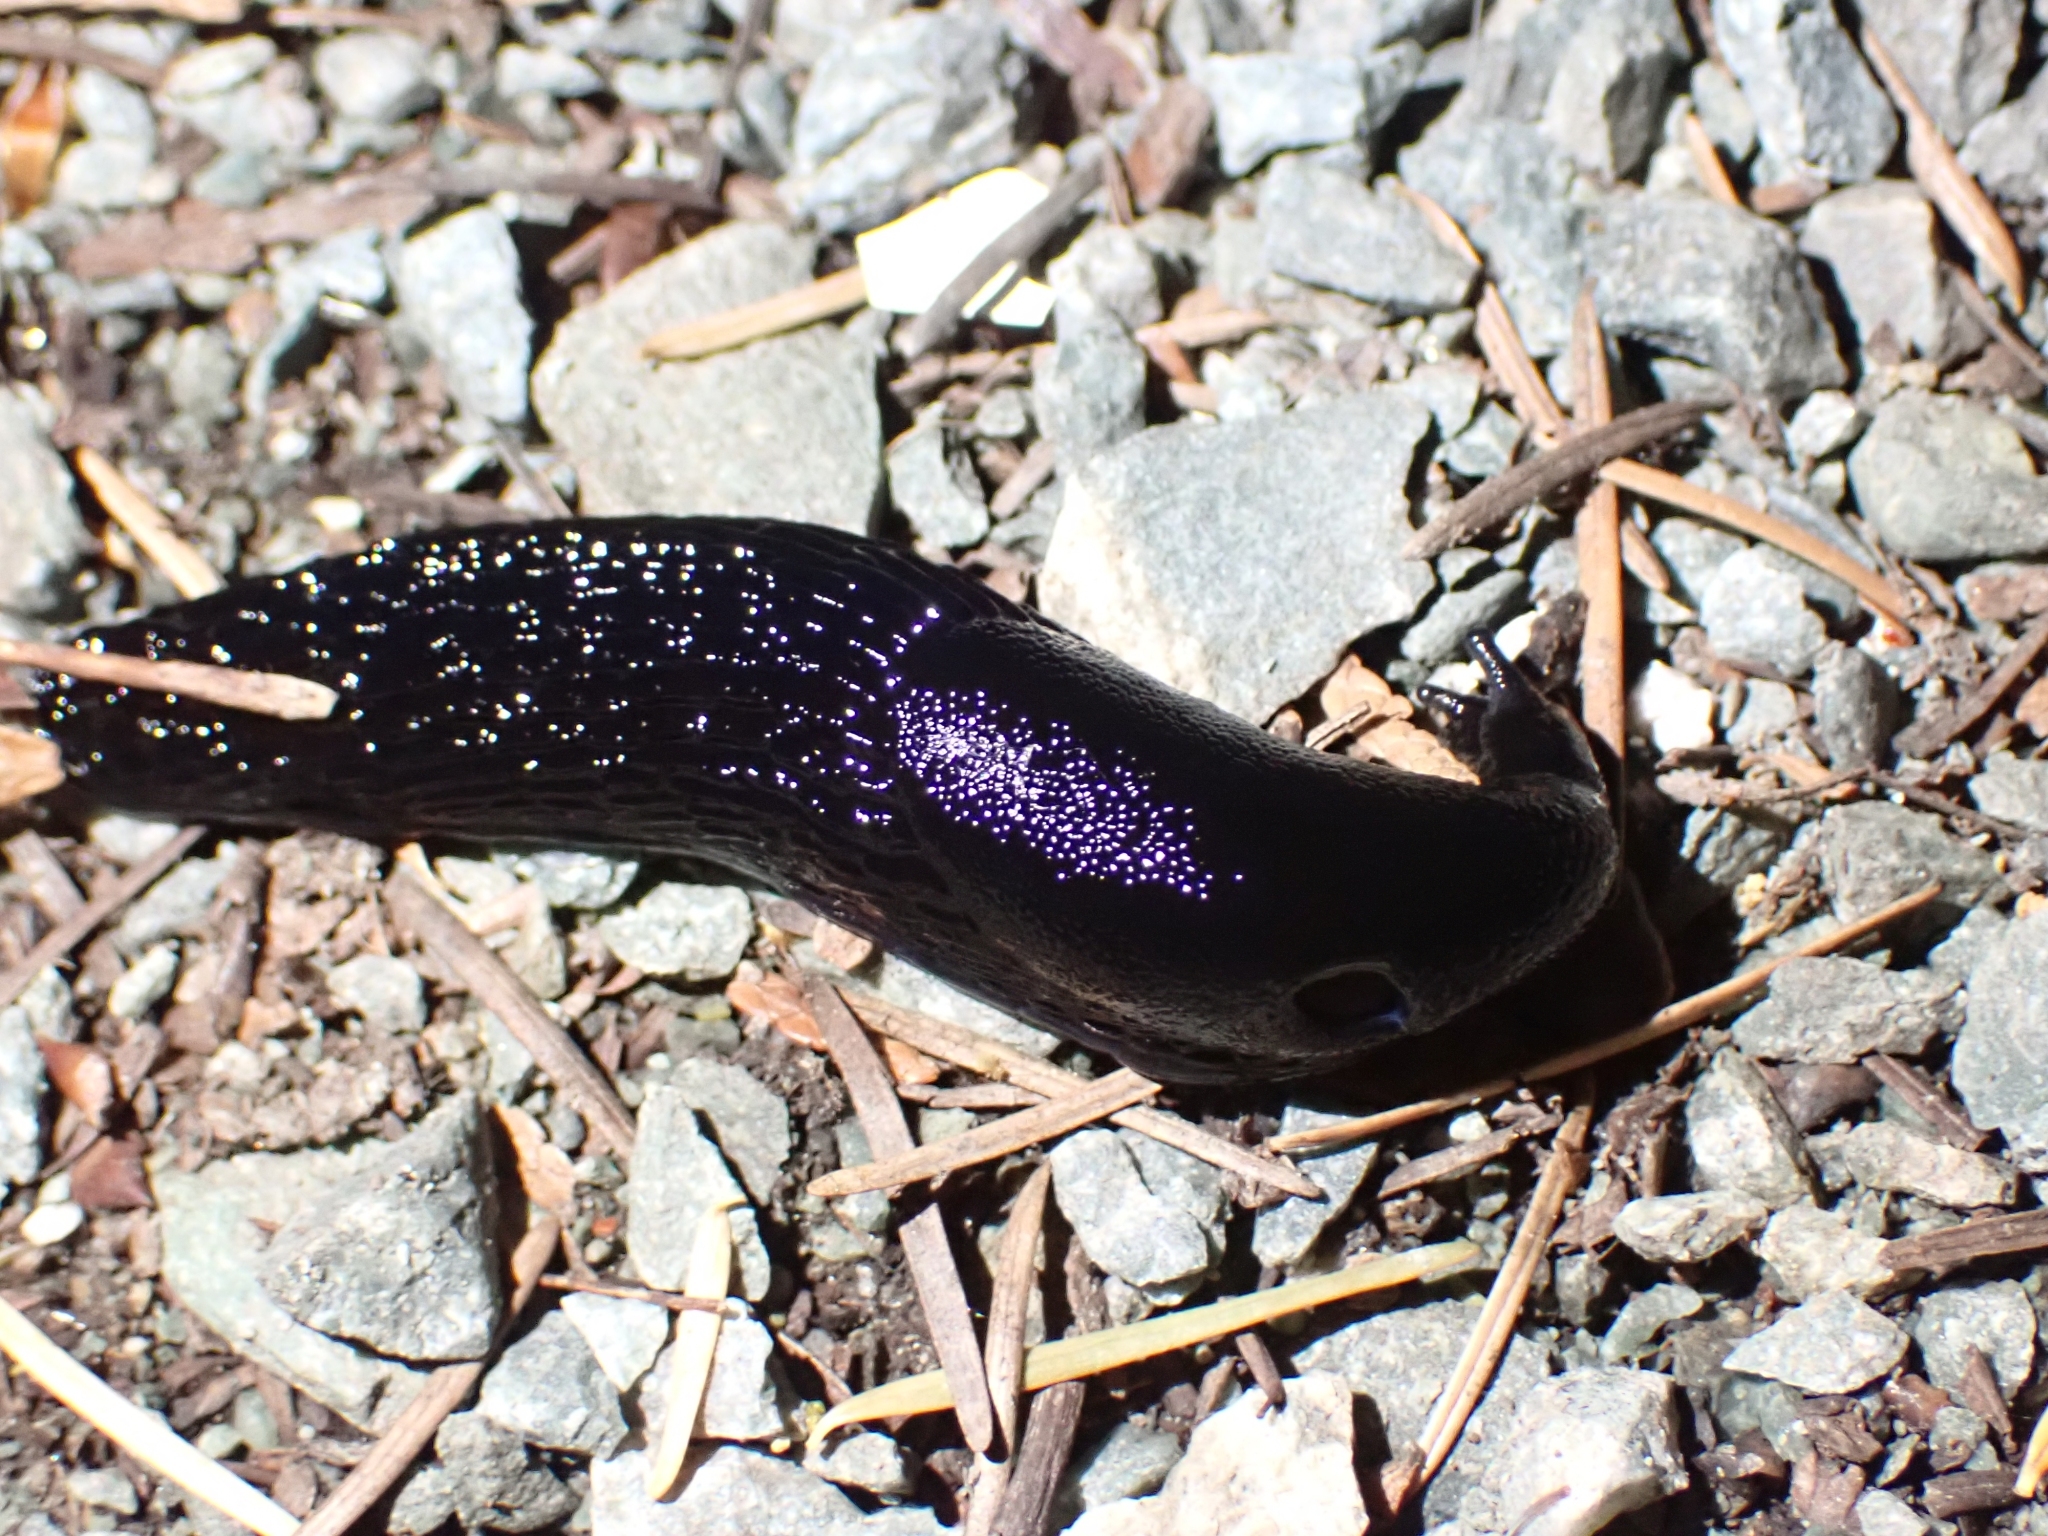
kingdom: Animalia
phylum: Mollusca
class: Gastropoda
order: Stylommatophora
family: Arionidae
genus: Arion
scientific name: Arion
